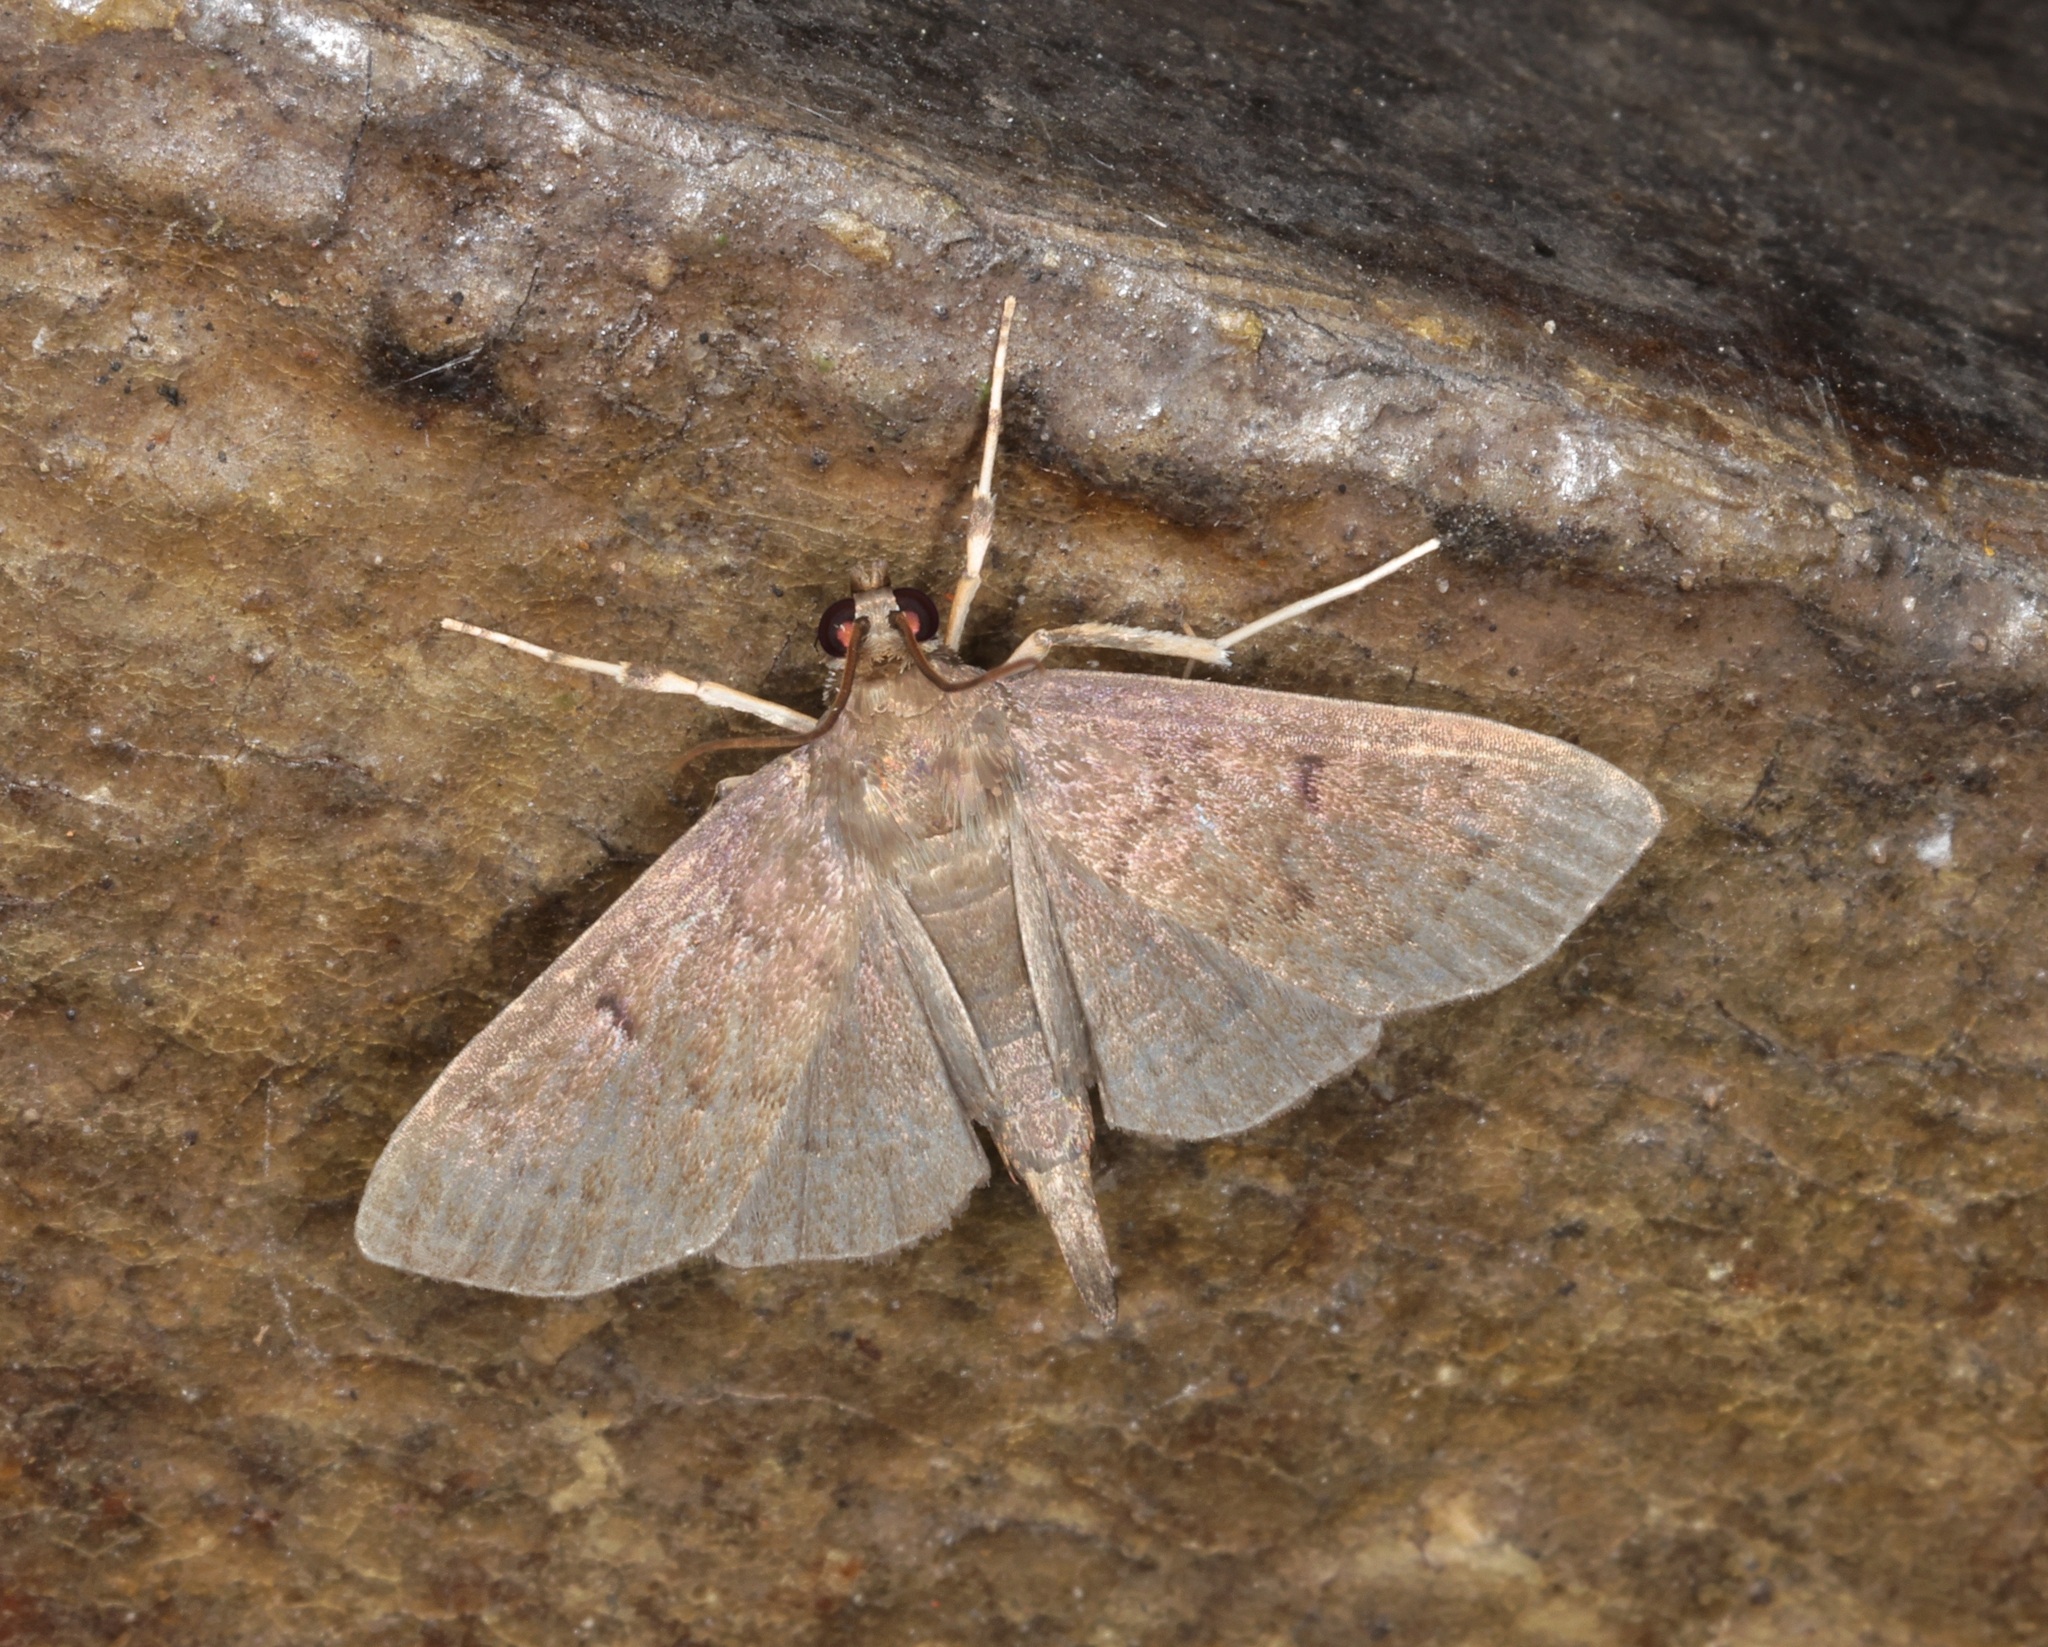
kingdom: Animalia
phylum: Arthropoda
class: Insecta
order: Lepidoptera
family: Crambidae
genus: Lamprosema
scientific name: Lamprosema tristrialis
